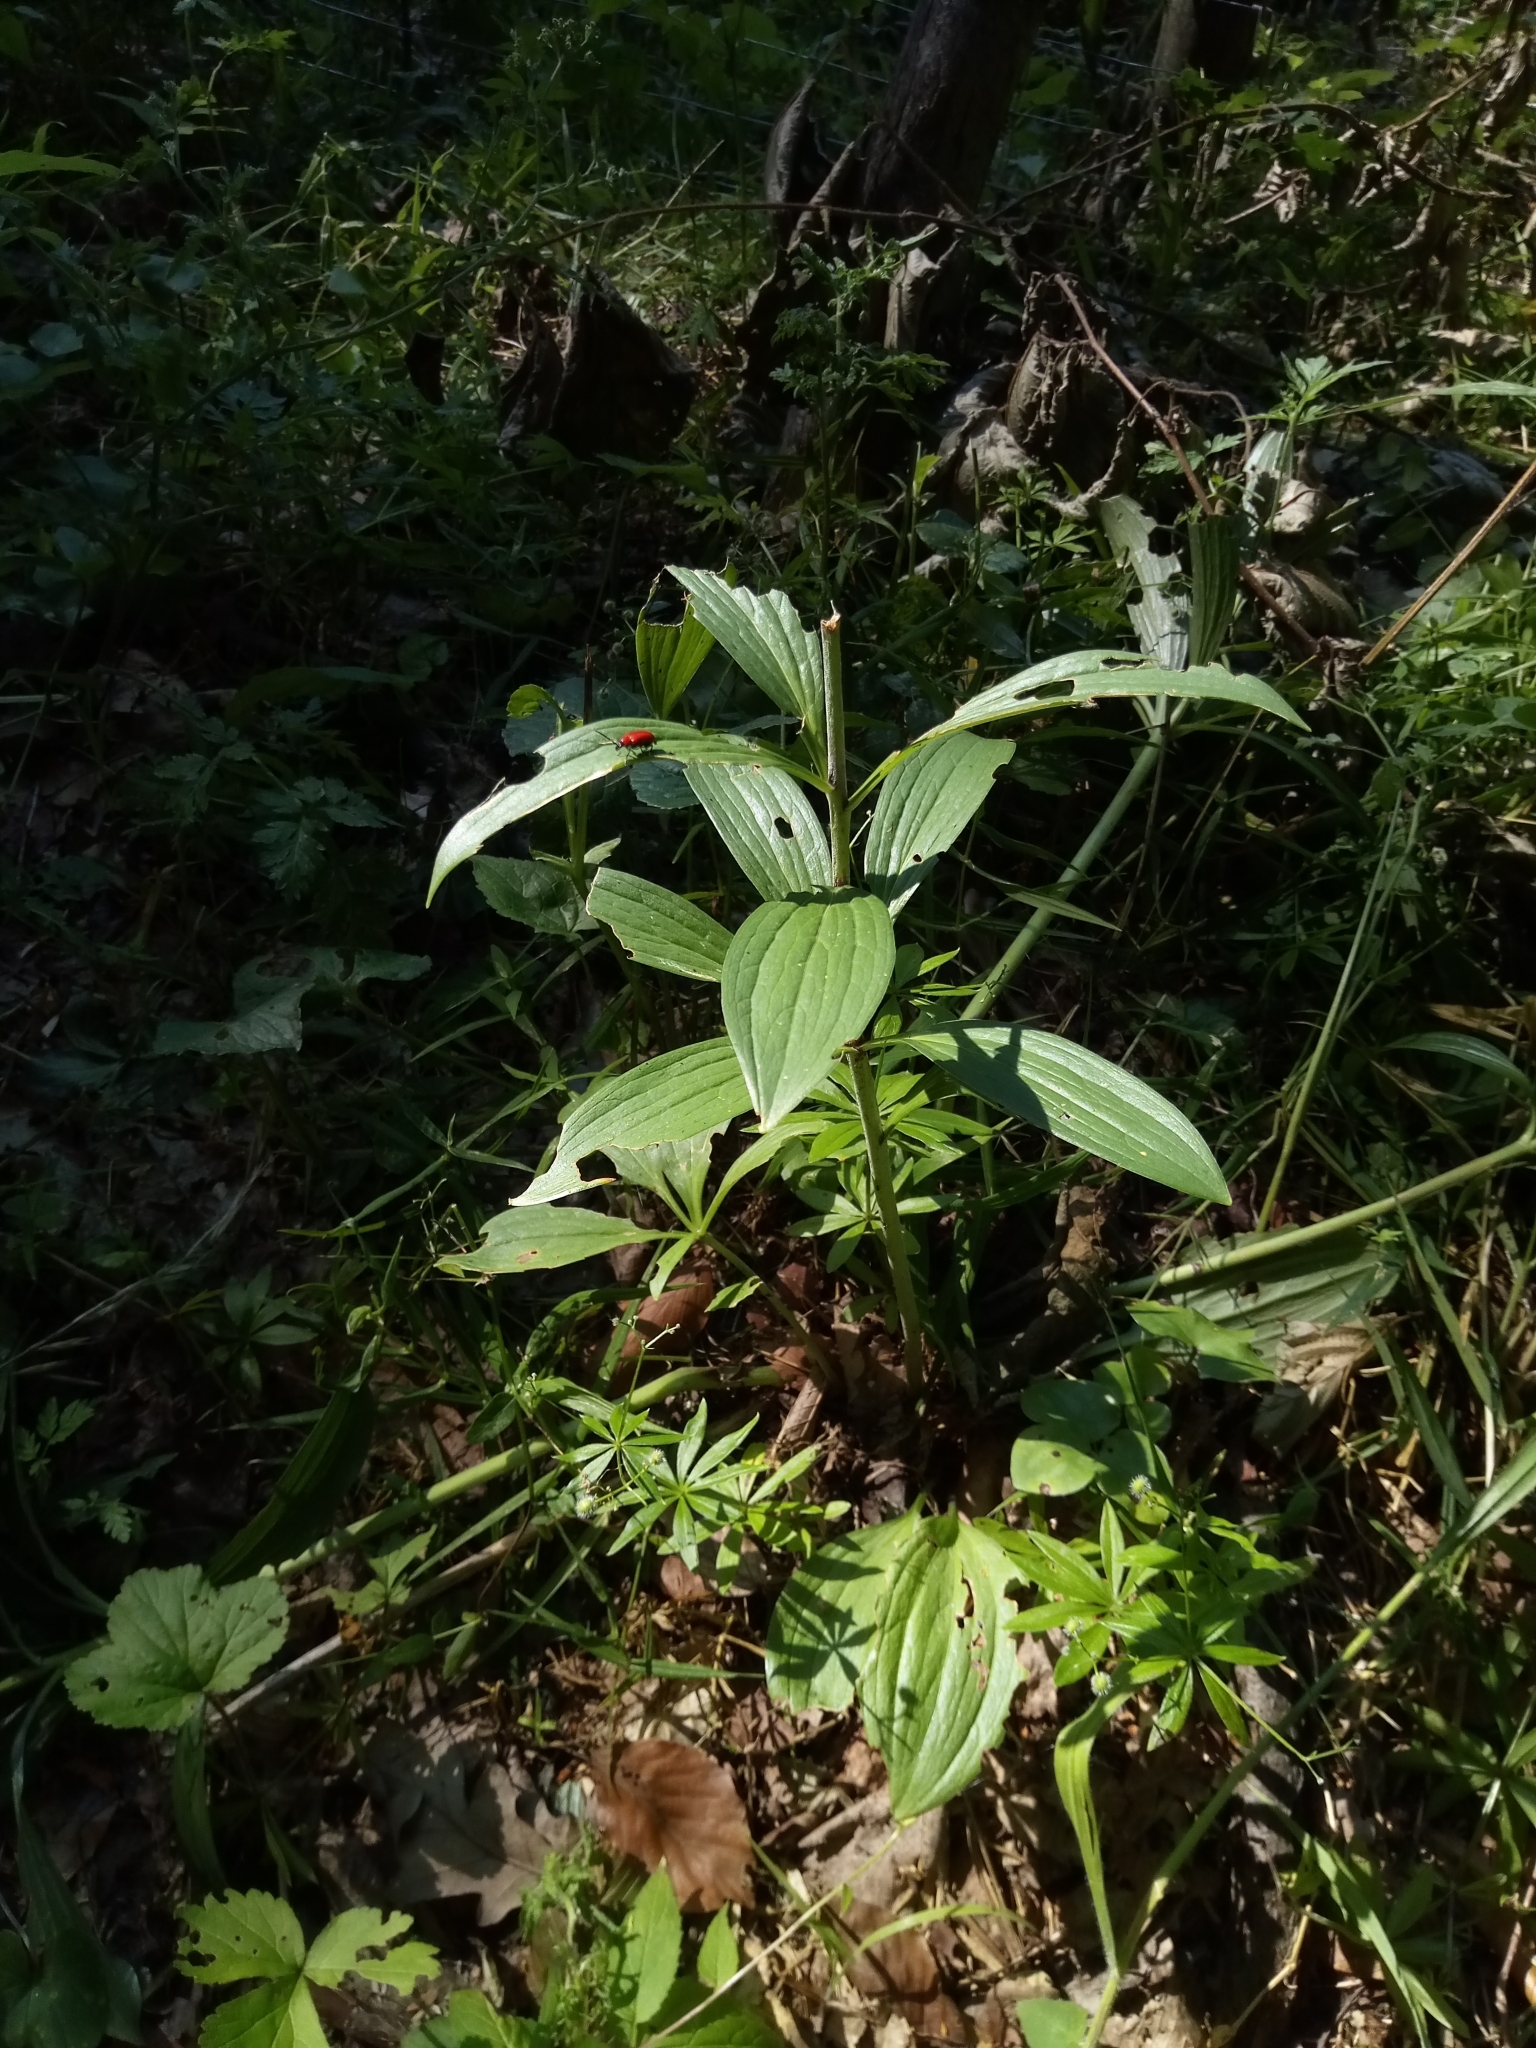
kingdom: Plantae
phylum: Tracheophyta
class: Liliopsida
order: Liliales
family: Liliaceae
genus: Lilium
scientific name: Lilium martagon
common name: Martagon lily
